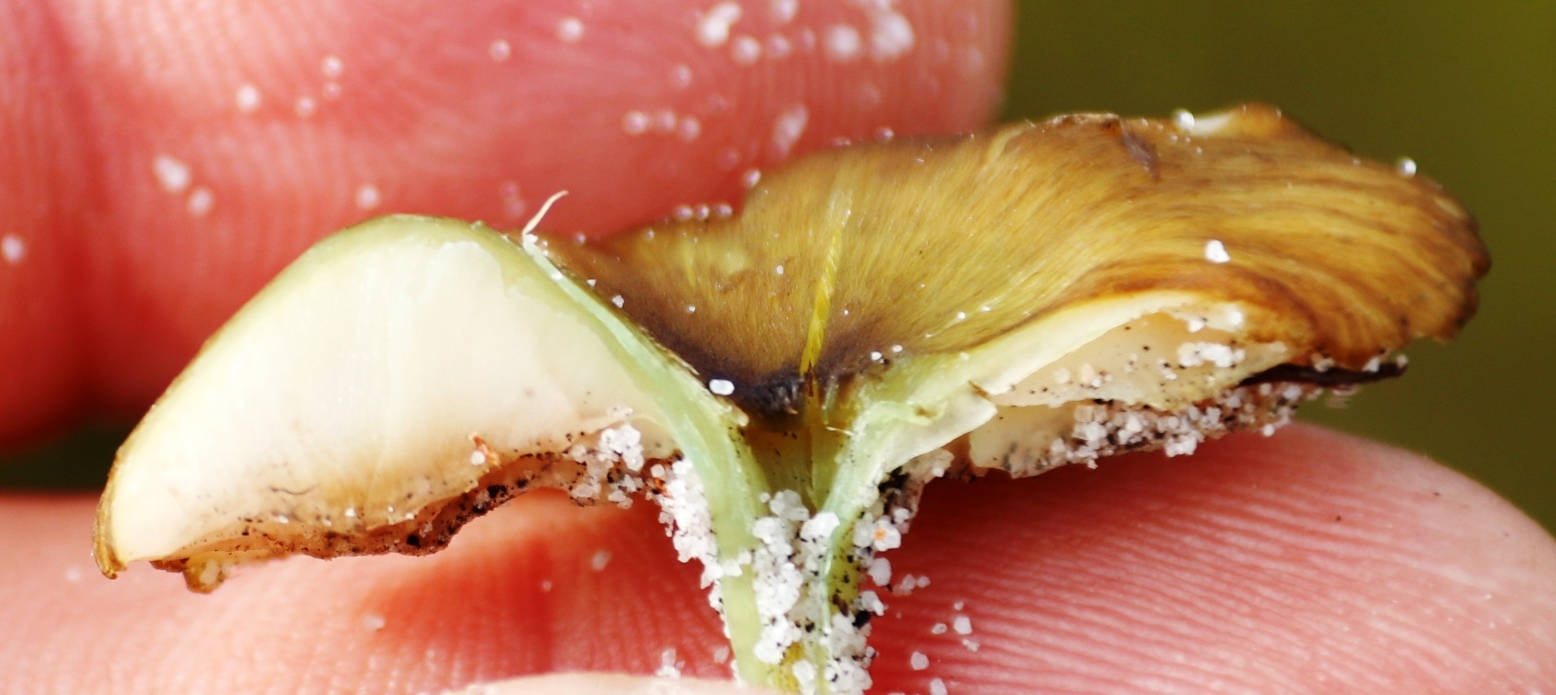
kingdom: Fungi
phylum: Basidiomycota
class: Agaricomycetes
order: Agaricales
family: Entolomataceae
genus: Entoloma
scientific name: Entoloma incanum
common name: Mousepee pinkgill
